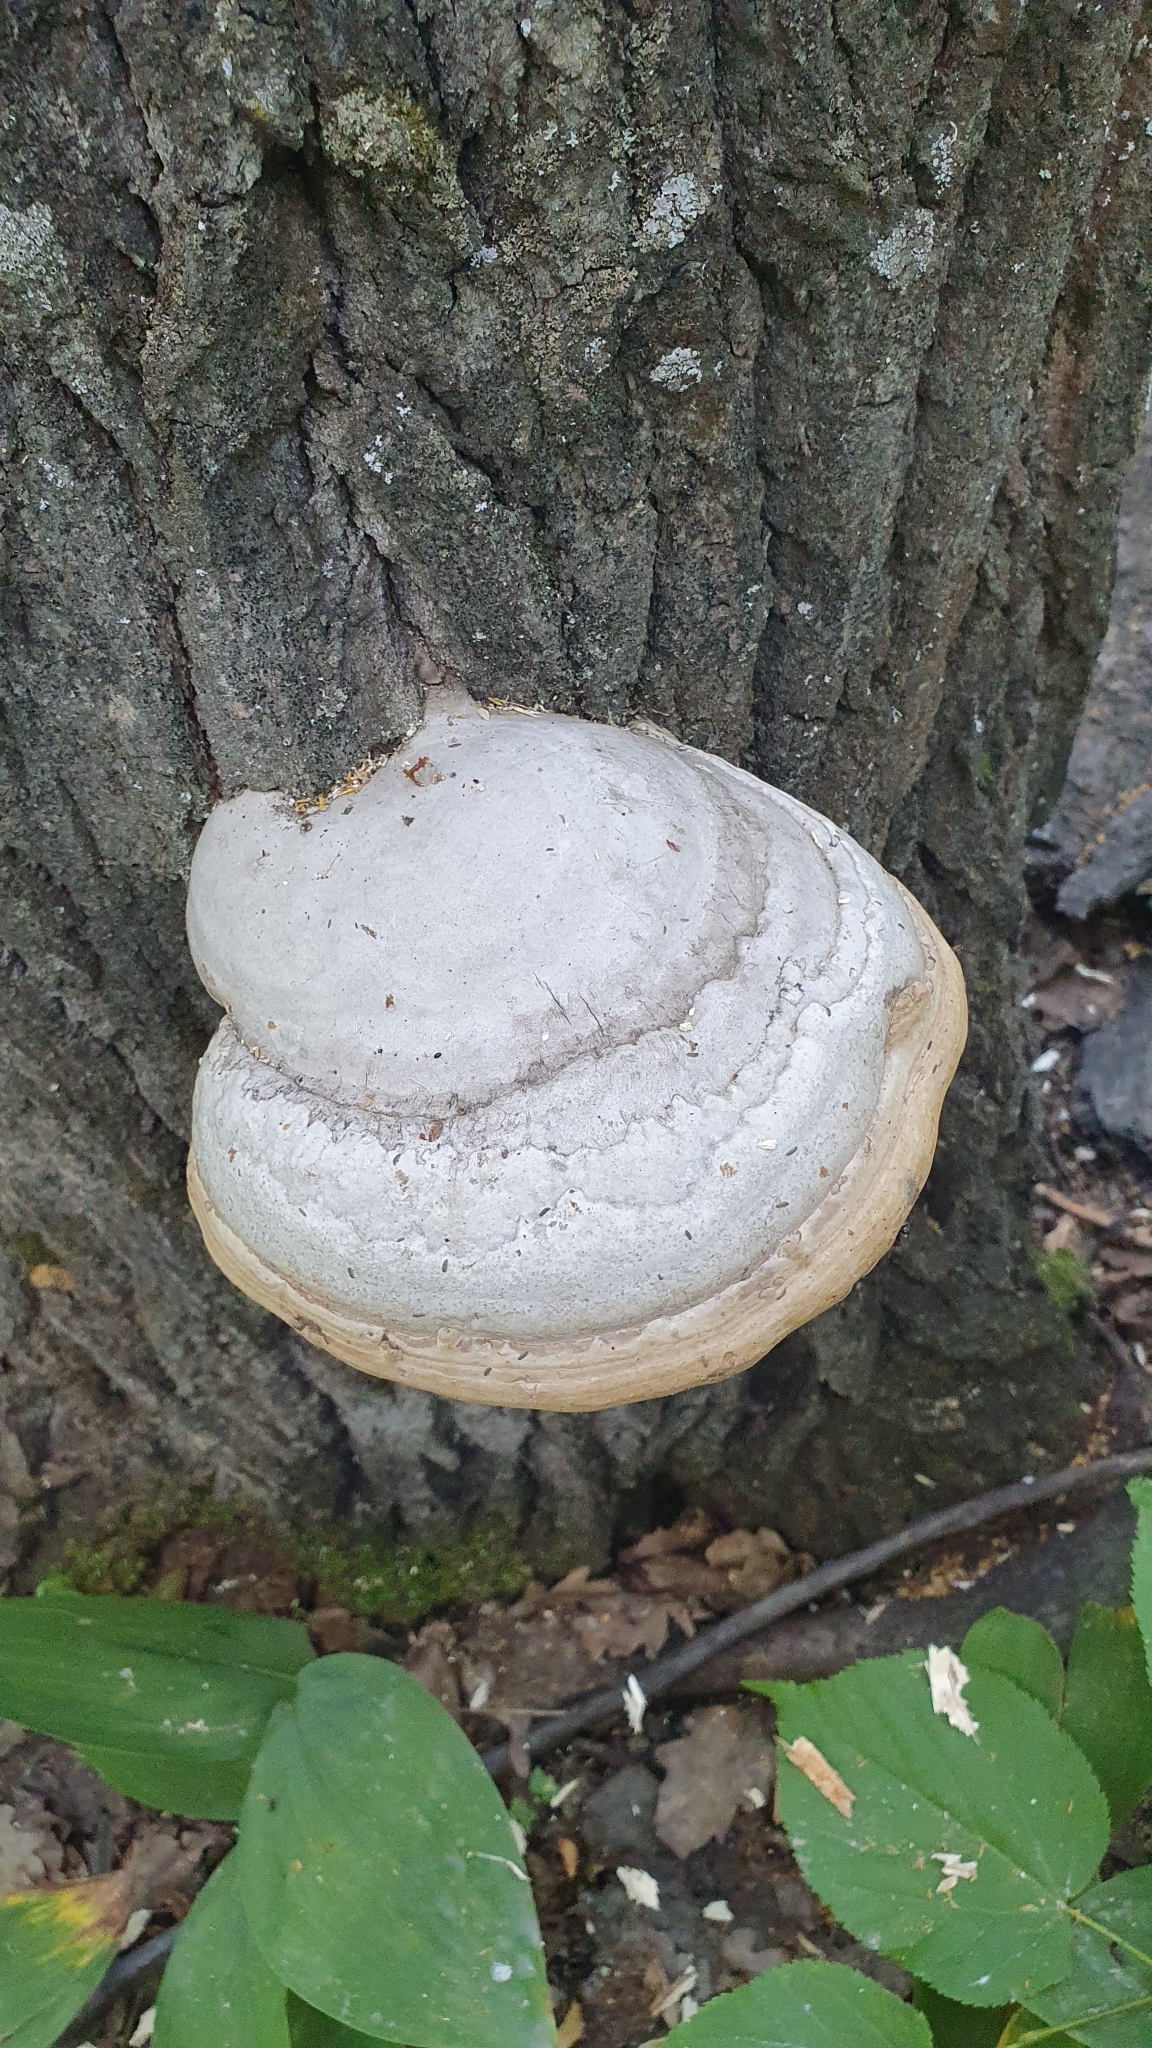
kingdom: Fungi
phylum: Basidiomycota
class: Agaricomycetes
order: Polyporales
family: Polyporaceae
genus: Fomes
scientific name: Fomes fomentarius
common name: Hoof fungus
